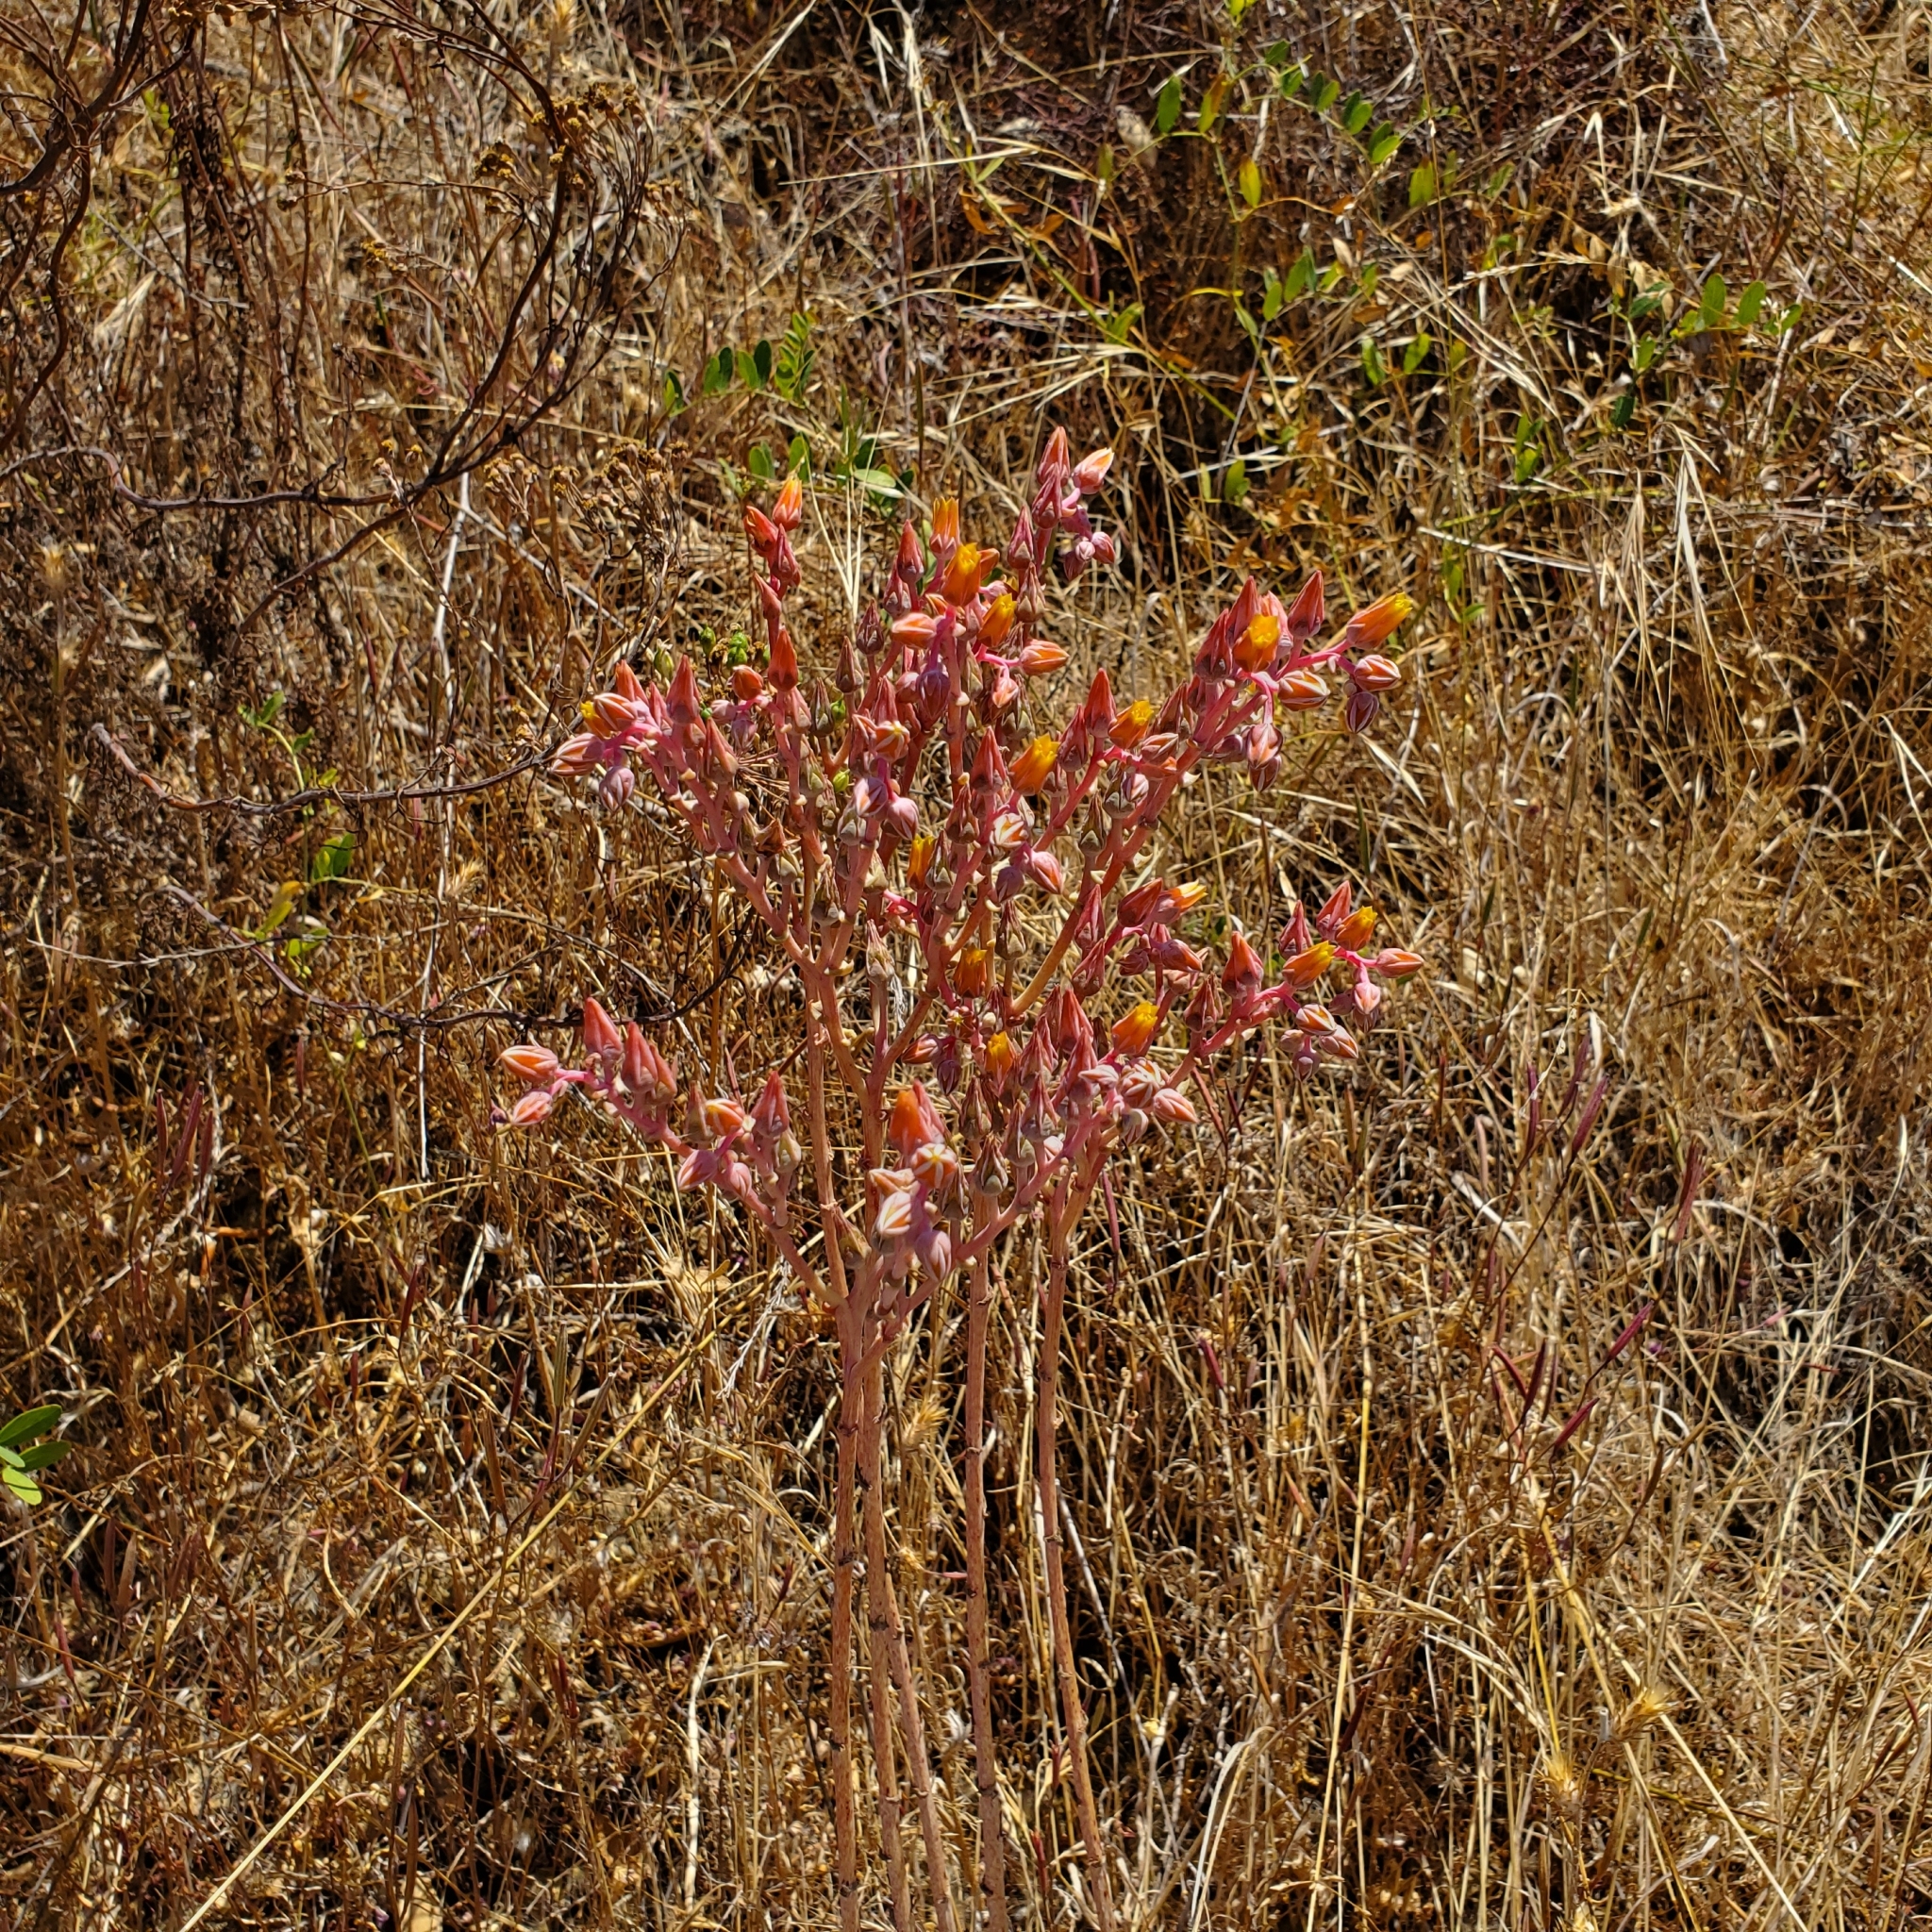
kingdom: Plantae
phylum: Tracheophyta
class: Magnoliopsida
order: Saxifragales
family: Crassulaceae
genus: Dudleya
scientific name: Dudleya lanceolata
